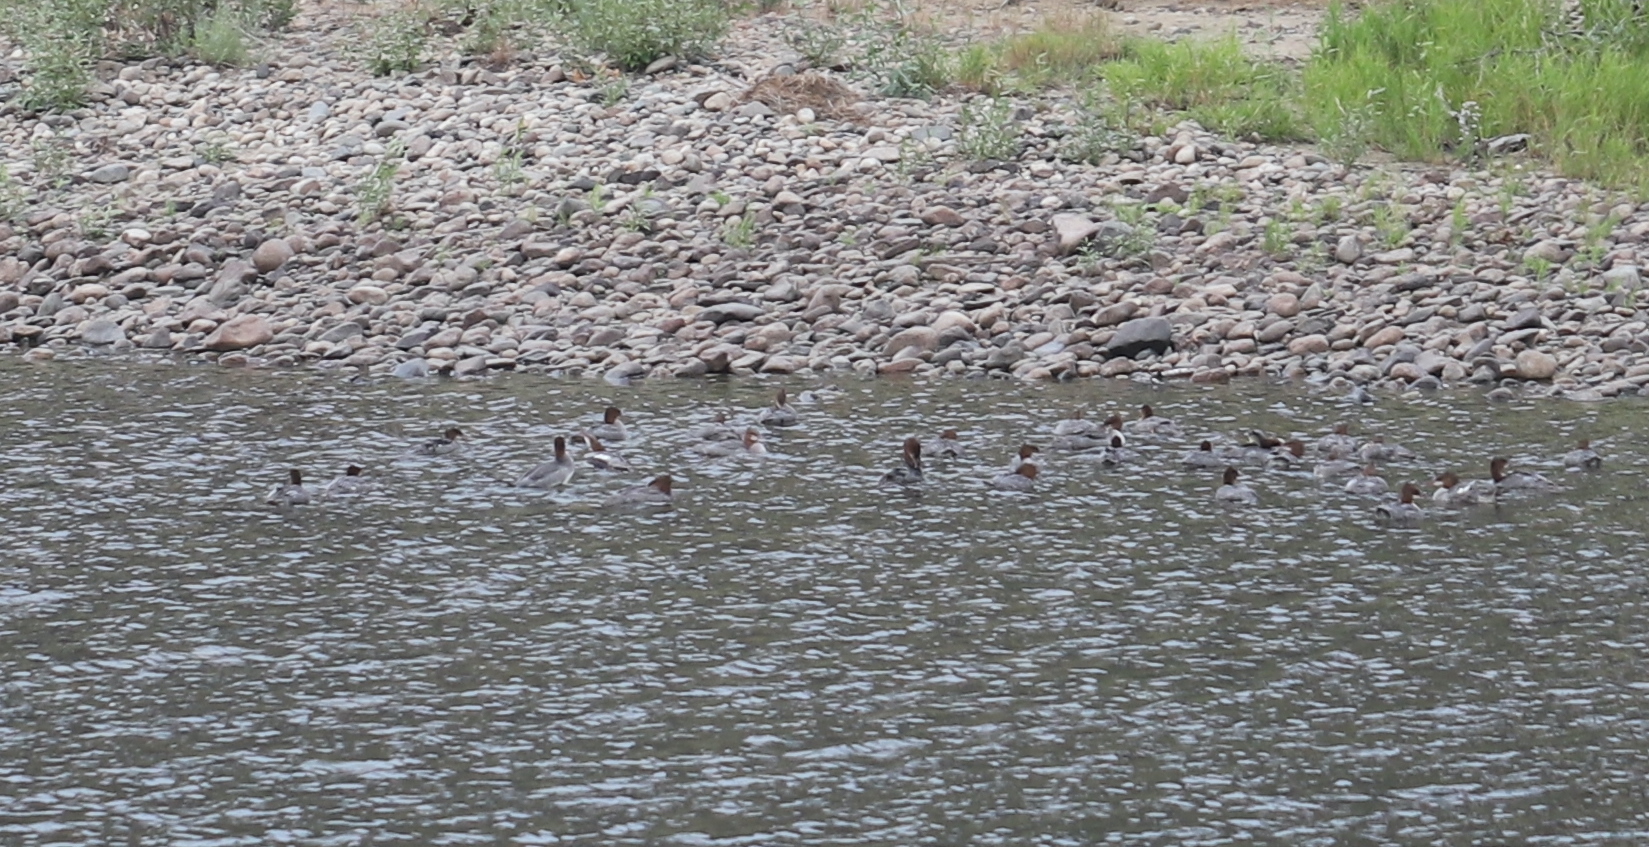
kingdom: Animalia
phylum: Chordata
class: Aves
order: Anseriformes
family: Anatidae
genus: Mergus
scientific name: Mergus merganser
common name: Common merganser
